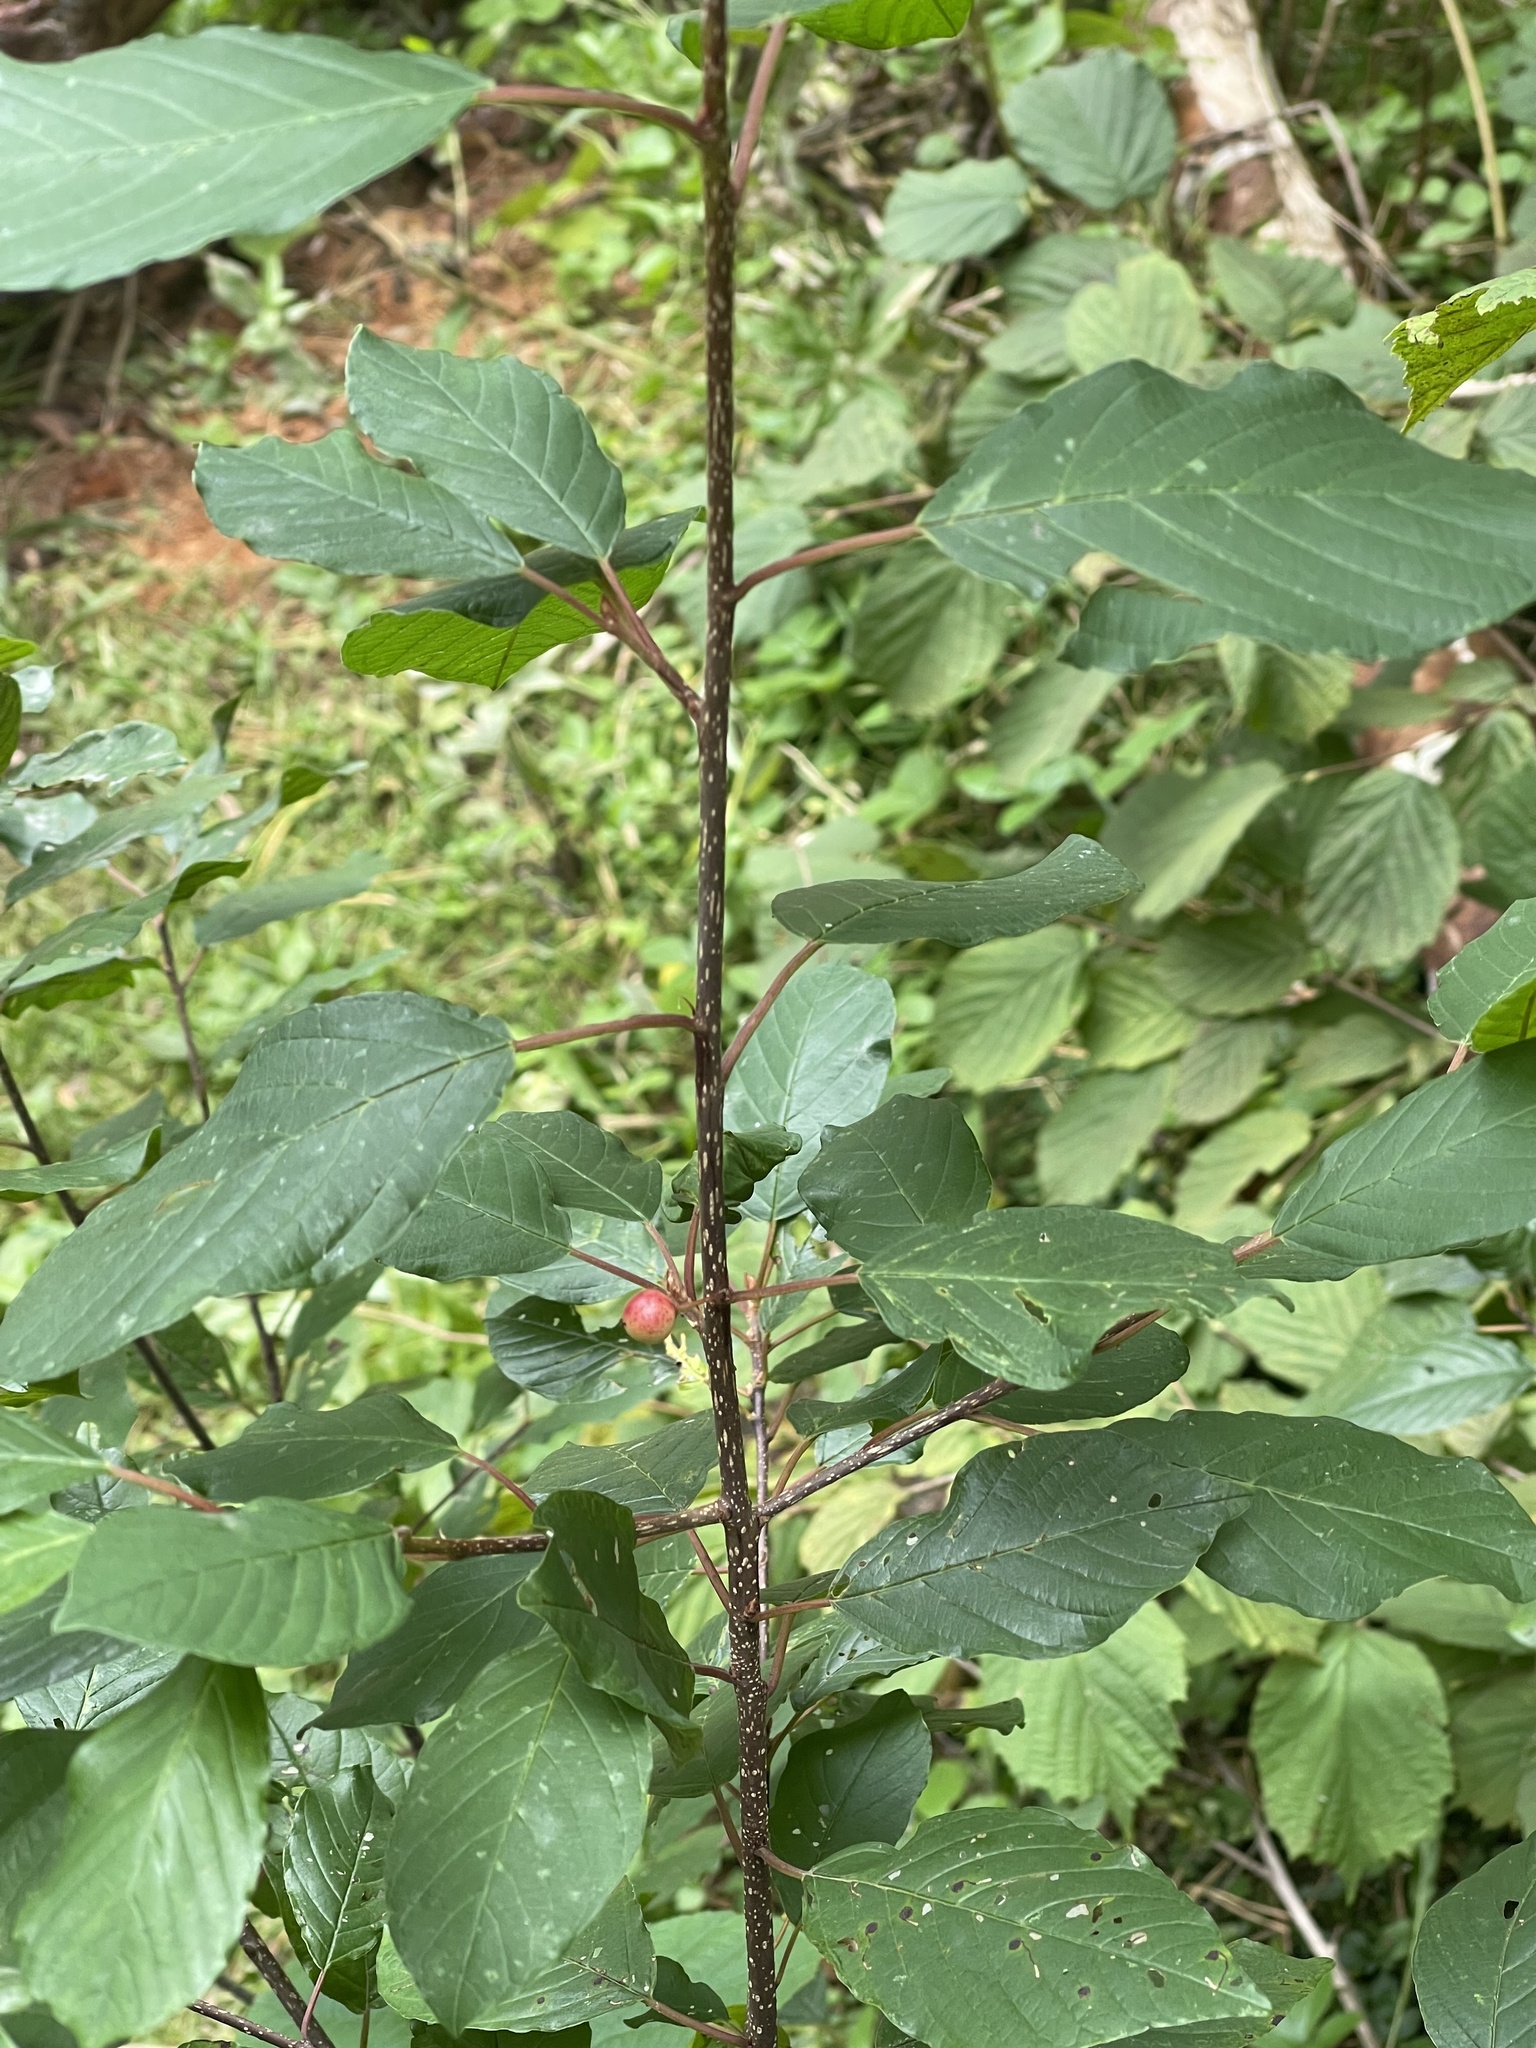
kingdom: Plantae
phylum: Tracheophyta
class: Magnoliopsida
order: Rosales
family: Rhamnaceae
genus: Frangula
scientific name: Frangula alnus
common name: Alder buckthorn
